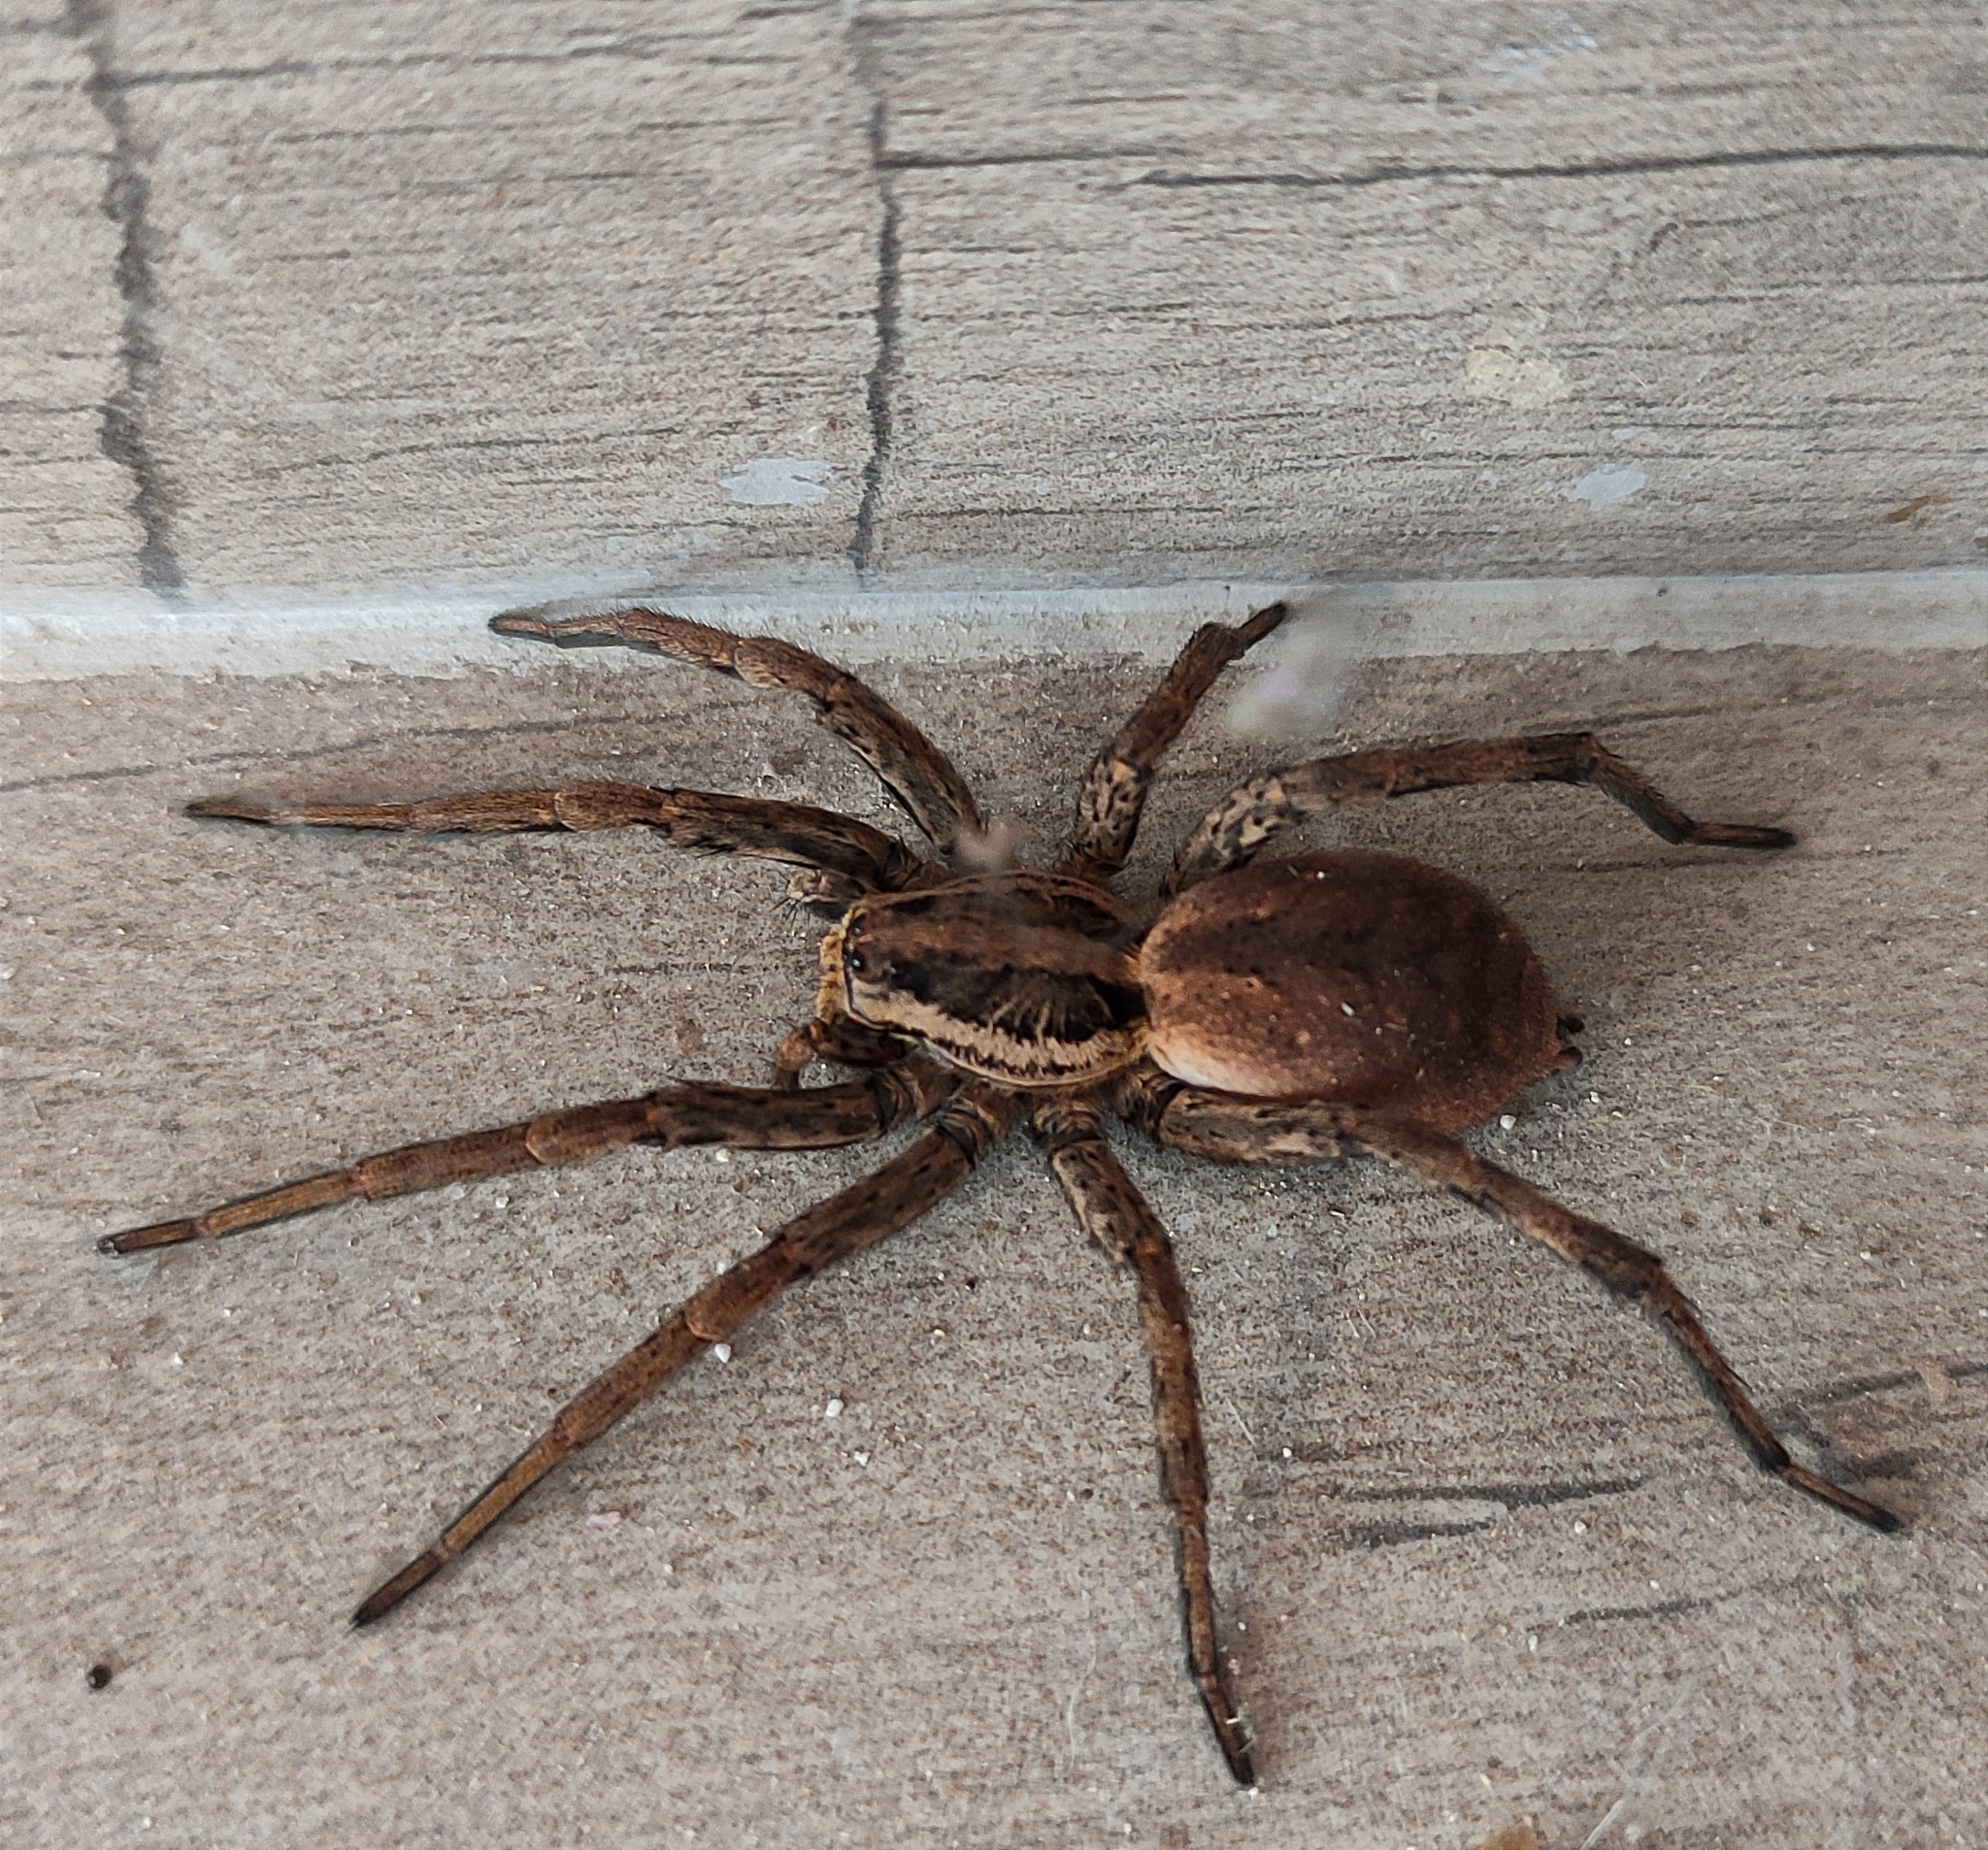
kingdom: Animalia
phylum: Arthropoda
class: Arachnida
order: Araneae
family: Lycosidae
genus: Hogna
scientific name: Hogna radiata
